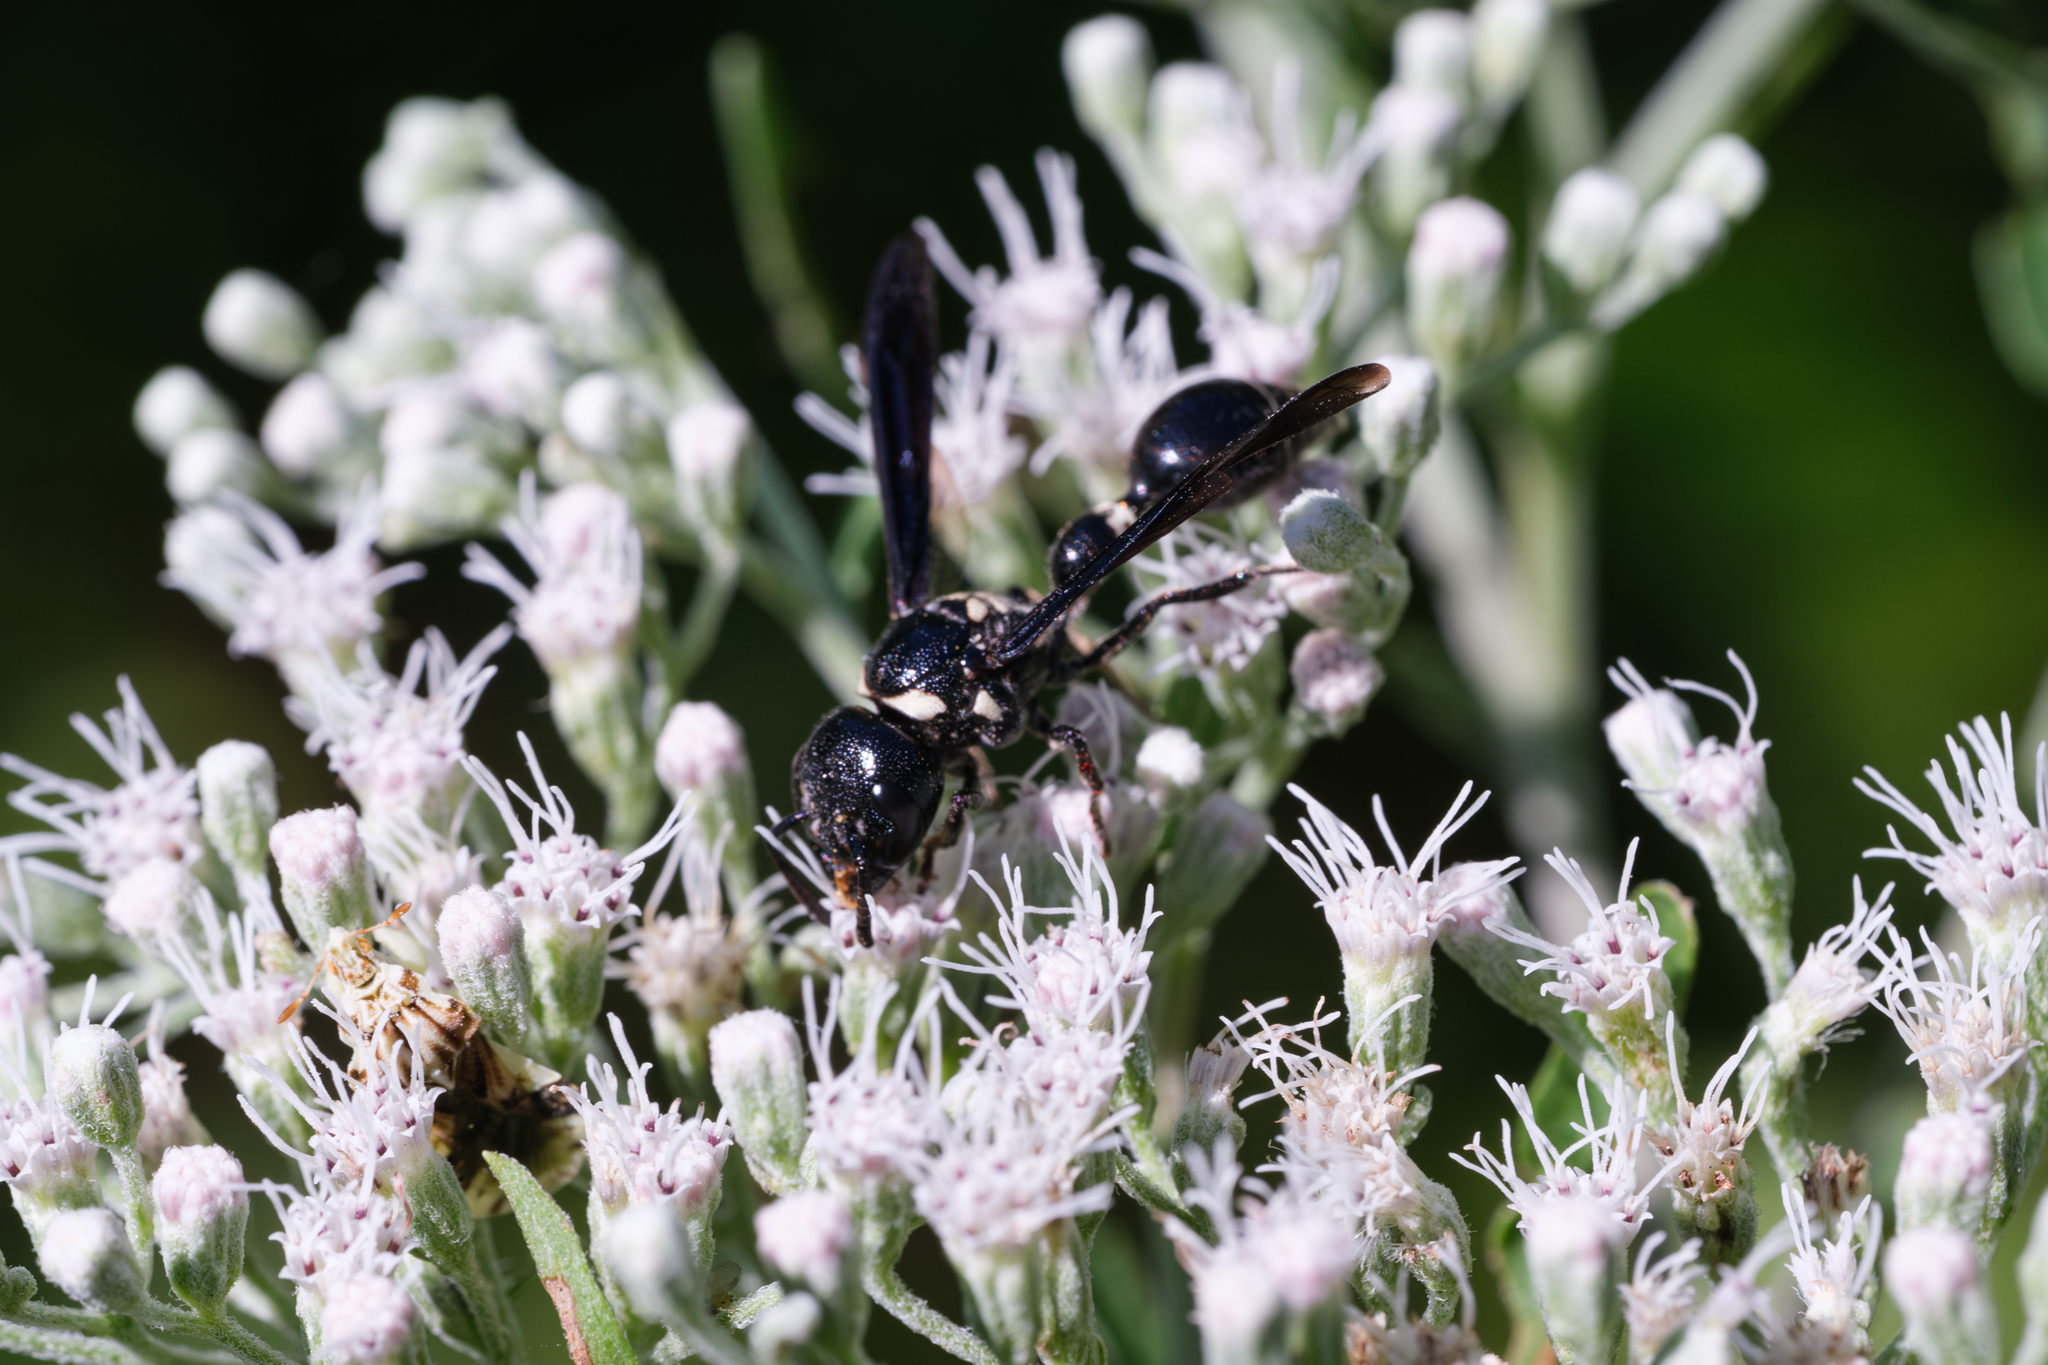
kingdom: Animalia
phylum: Arthropoda
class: Insecta
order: Hymenoptera
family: Eumenidae
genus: Zethus
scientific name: Zethus spinipes
